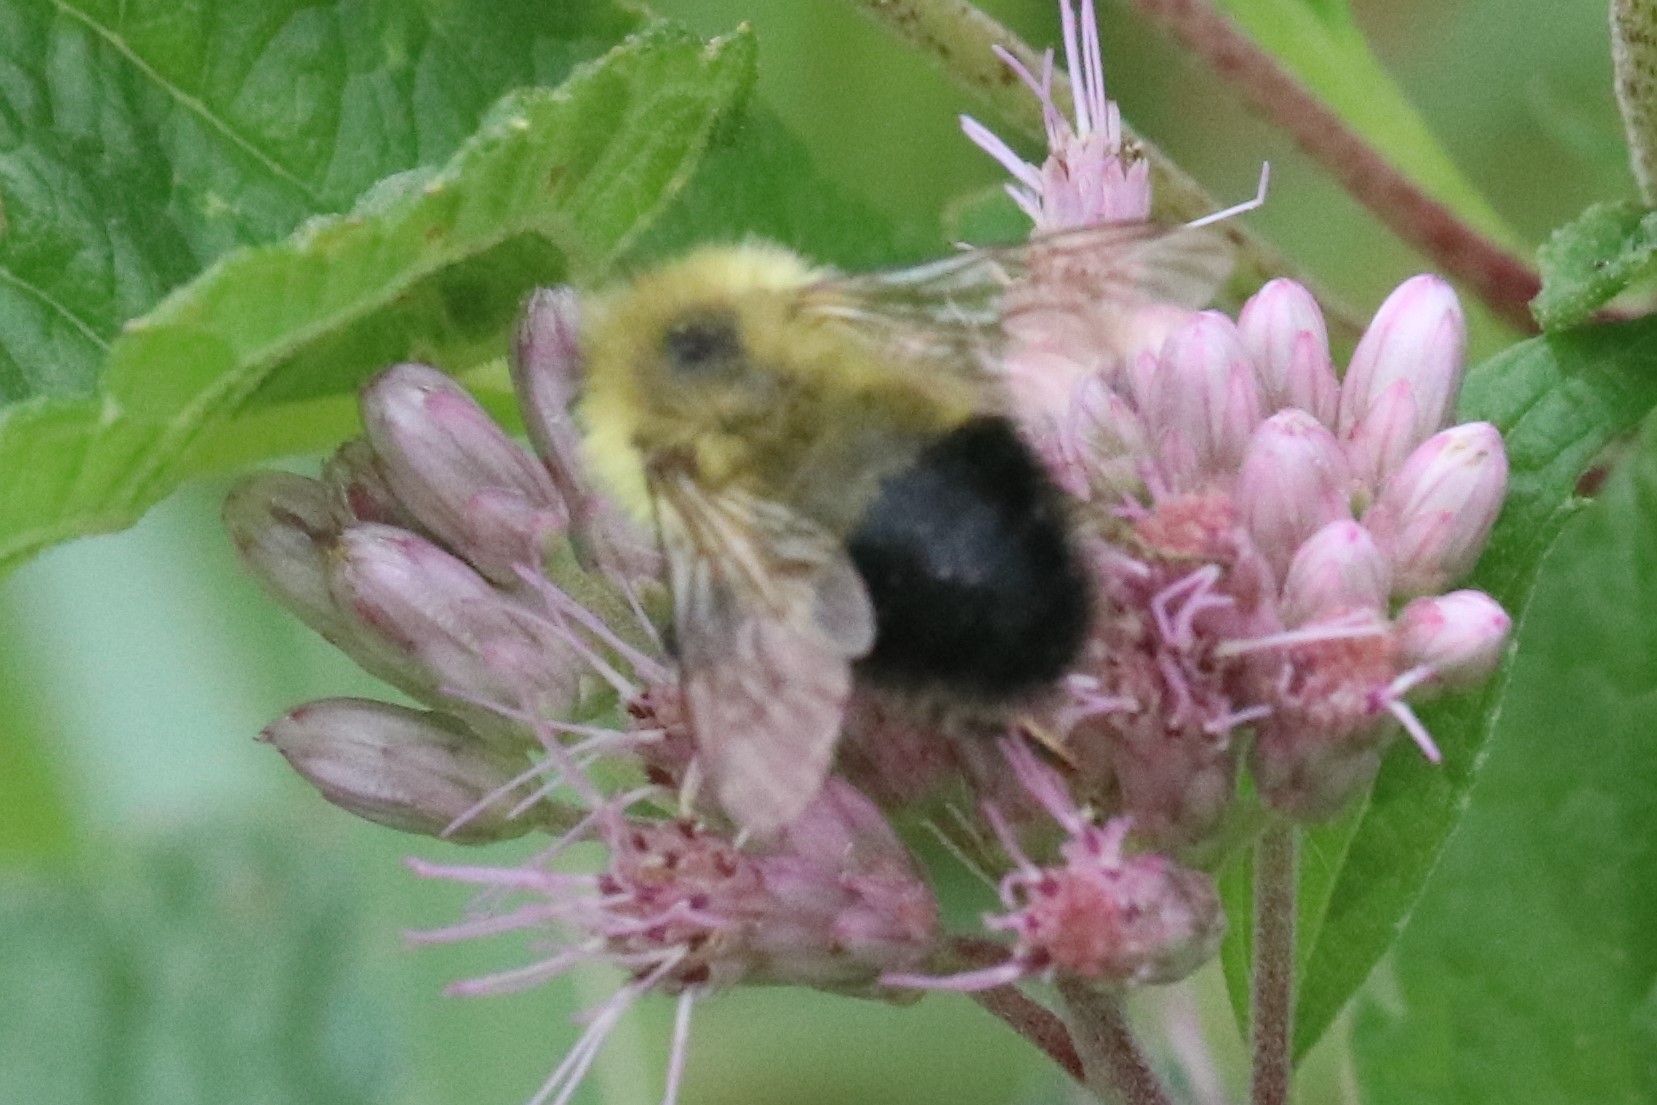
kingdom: Animalia
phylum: Arthropoda
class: Insecta
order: Hymenoptera
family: Apidae
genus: Pyrobombus
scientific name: Pyrobombus
